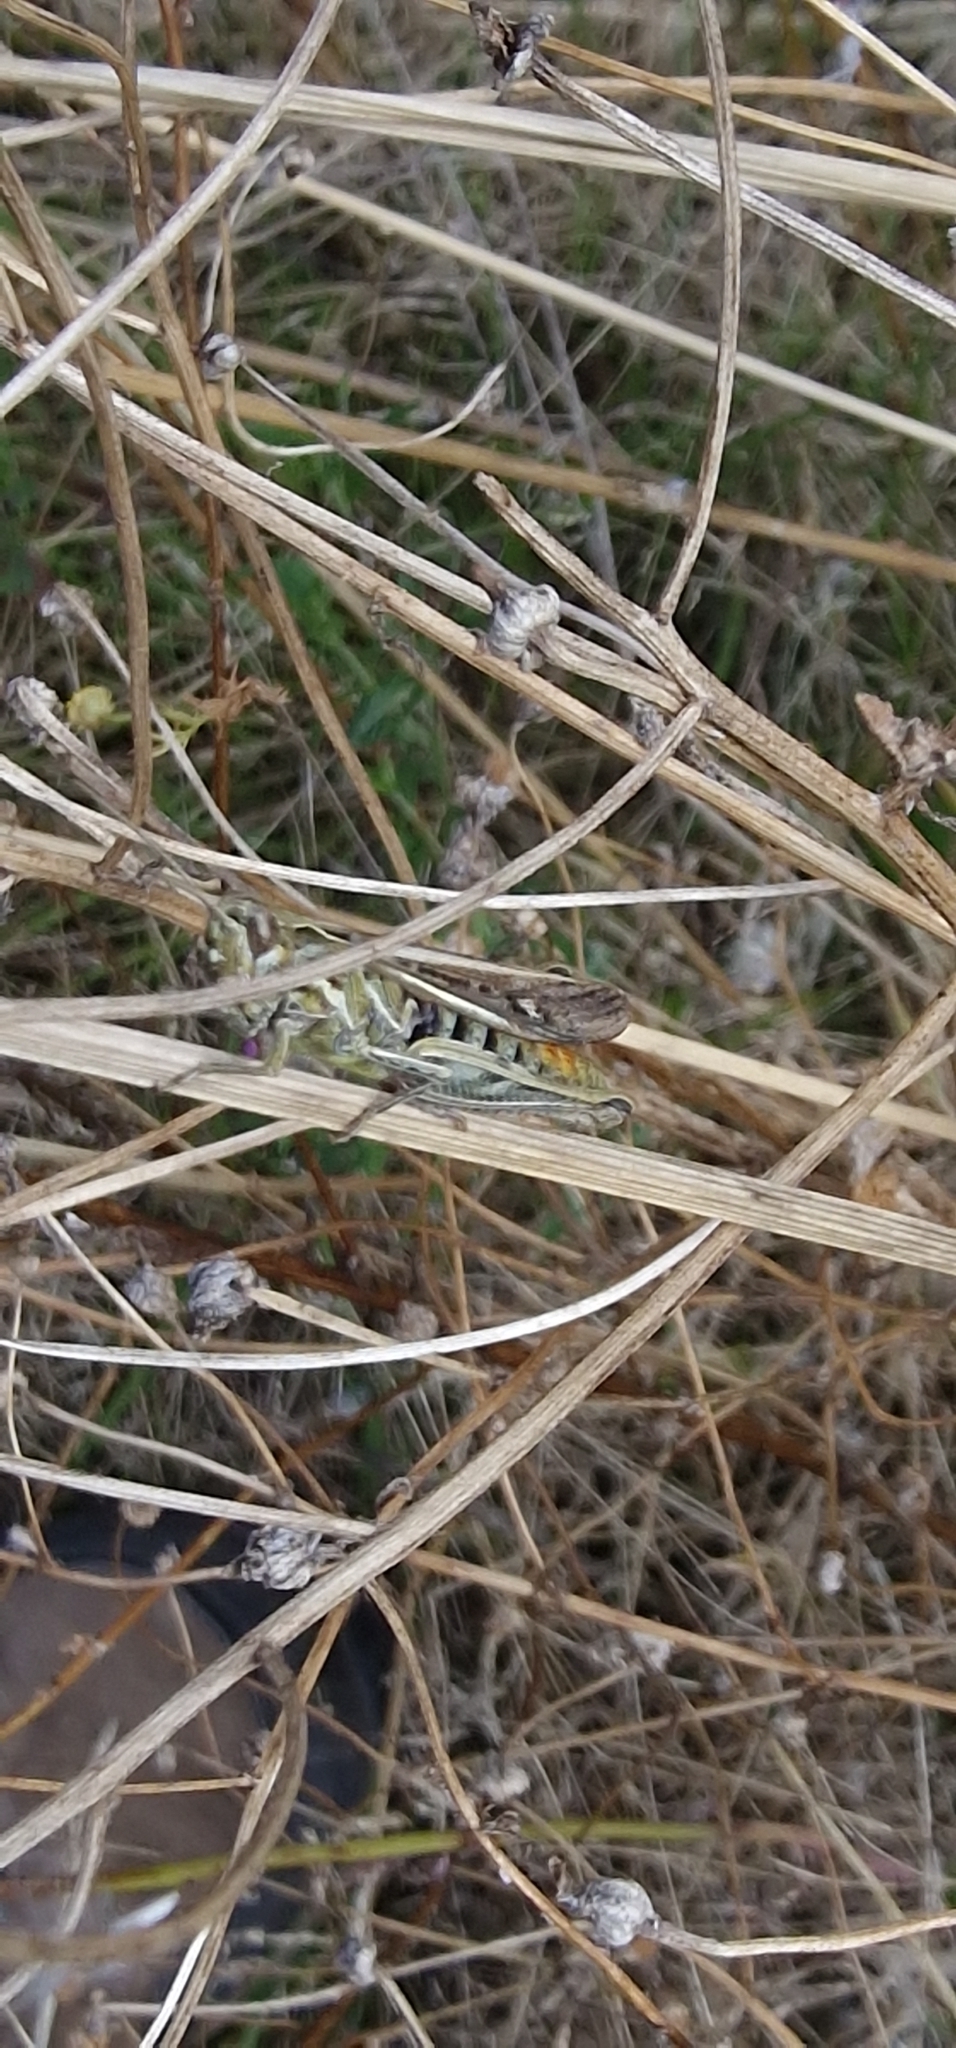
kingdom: Animalia
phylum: Arthropoda
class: Insecta
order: Orthoptera
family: Acrididae
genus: Chorthippus
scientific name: Chorthippus brunneus
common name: Field grasshopper
